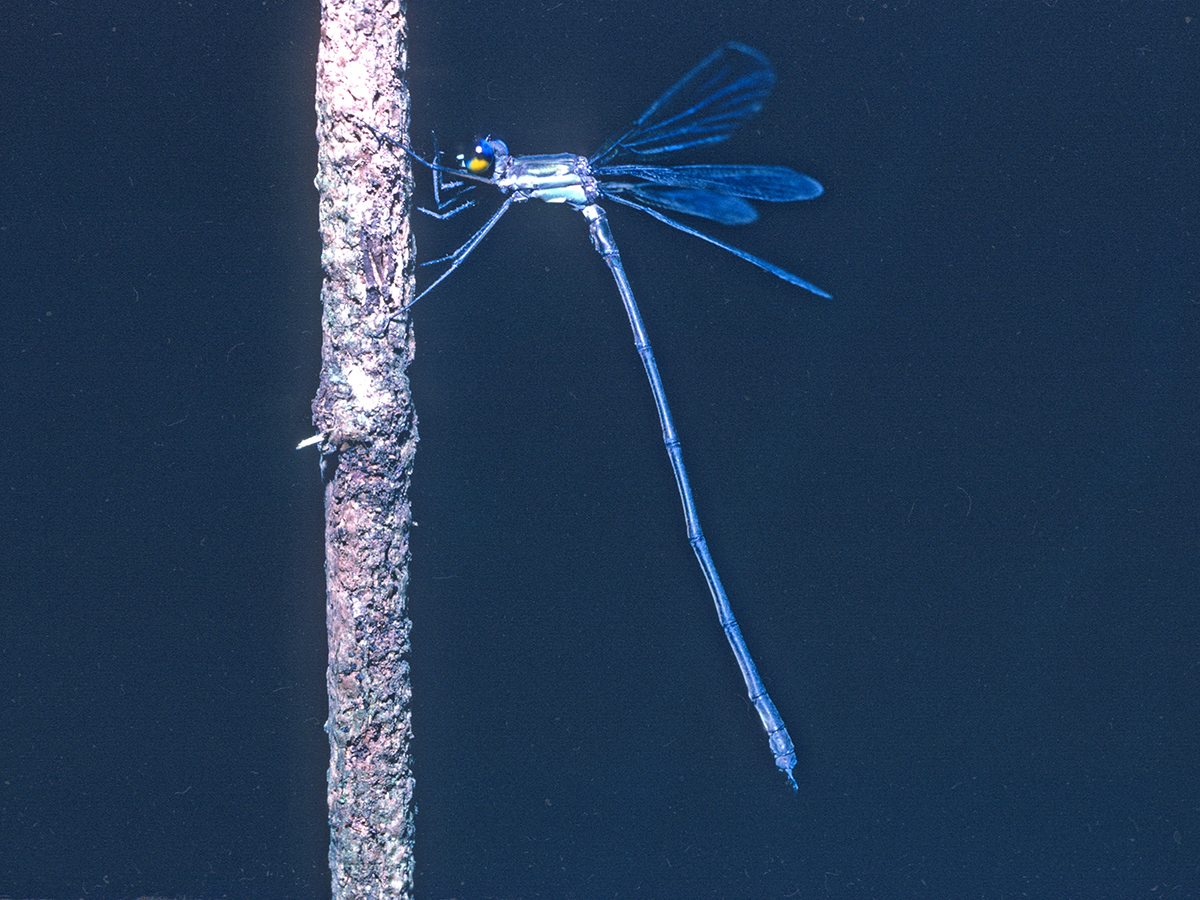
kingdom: Animalia
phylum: Arthropoda
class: Insecta
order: Odonata
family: Lestidae
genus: Archilestes
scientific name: Archilestes latialatus
